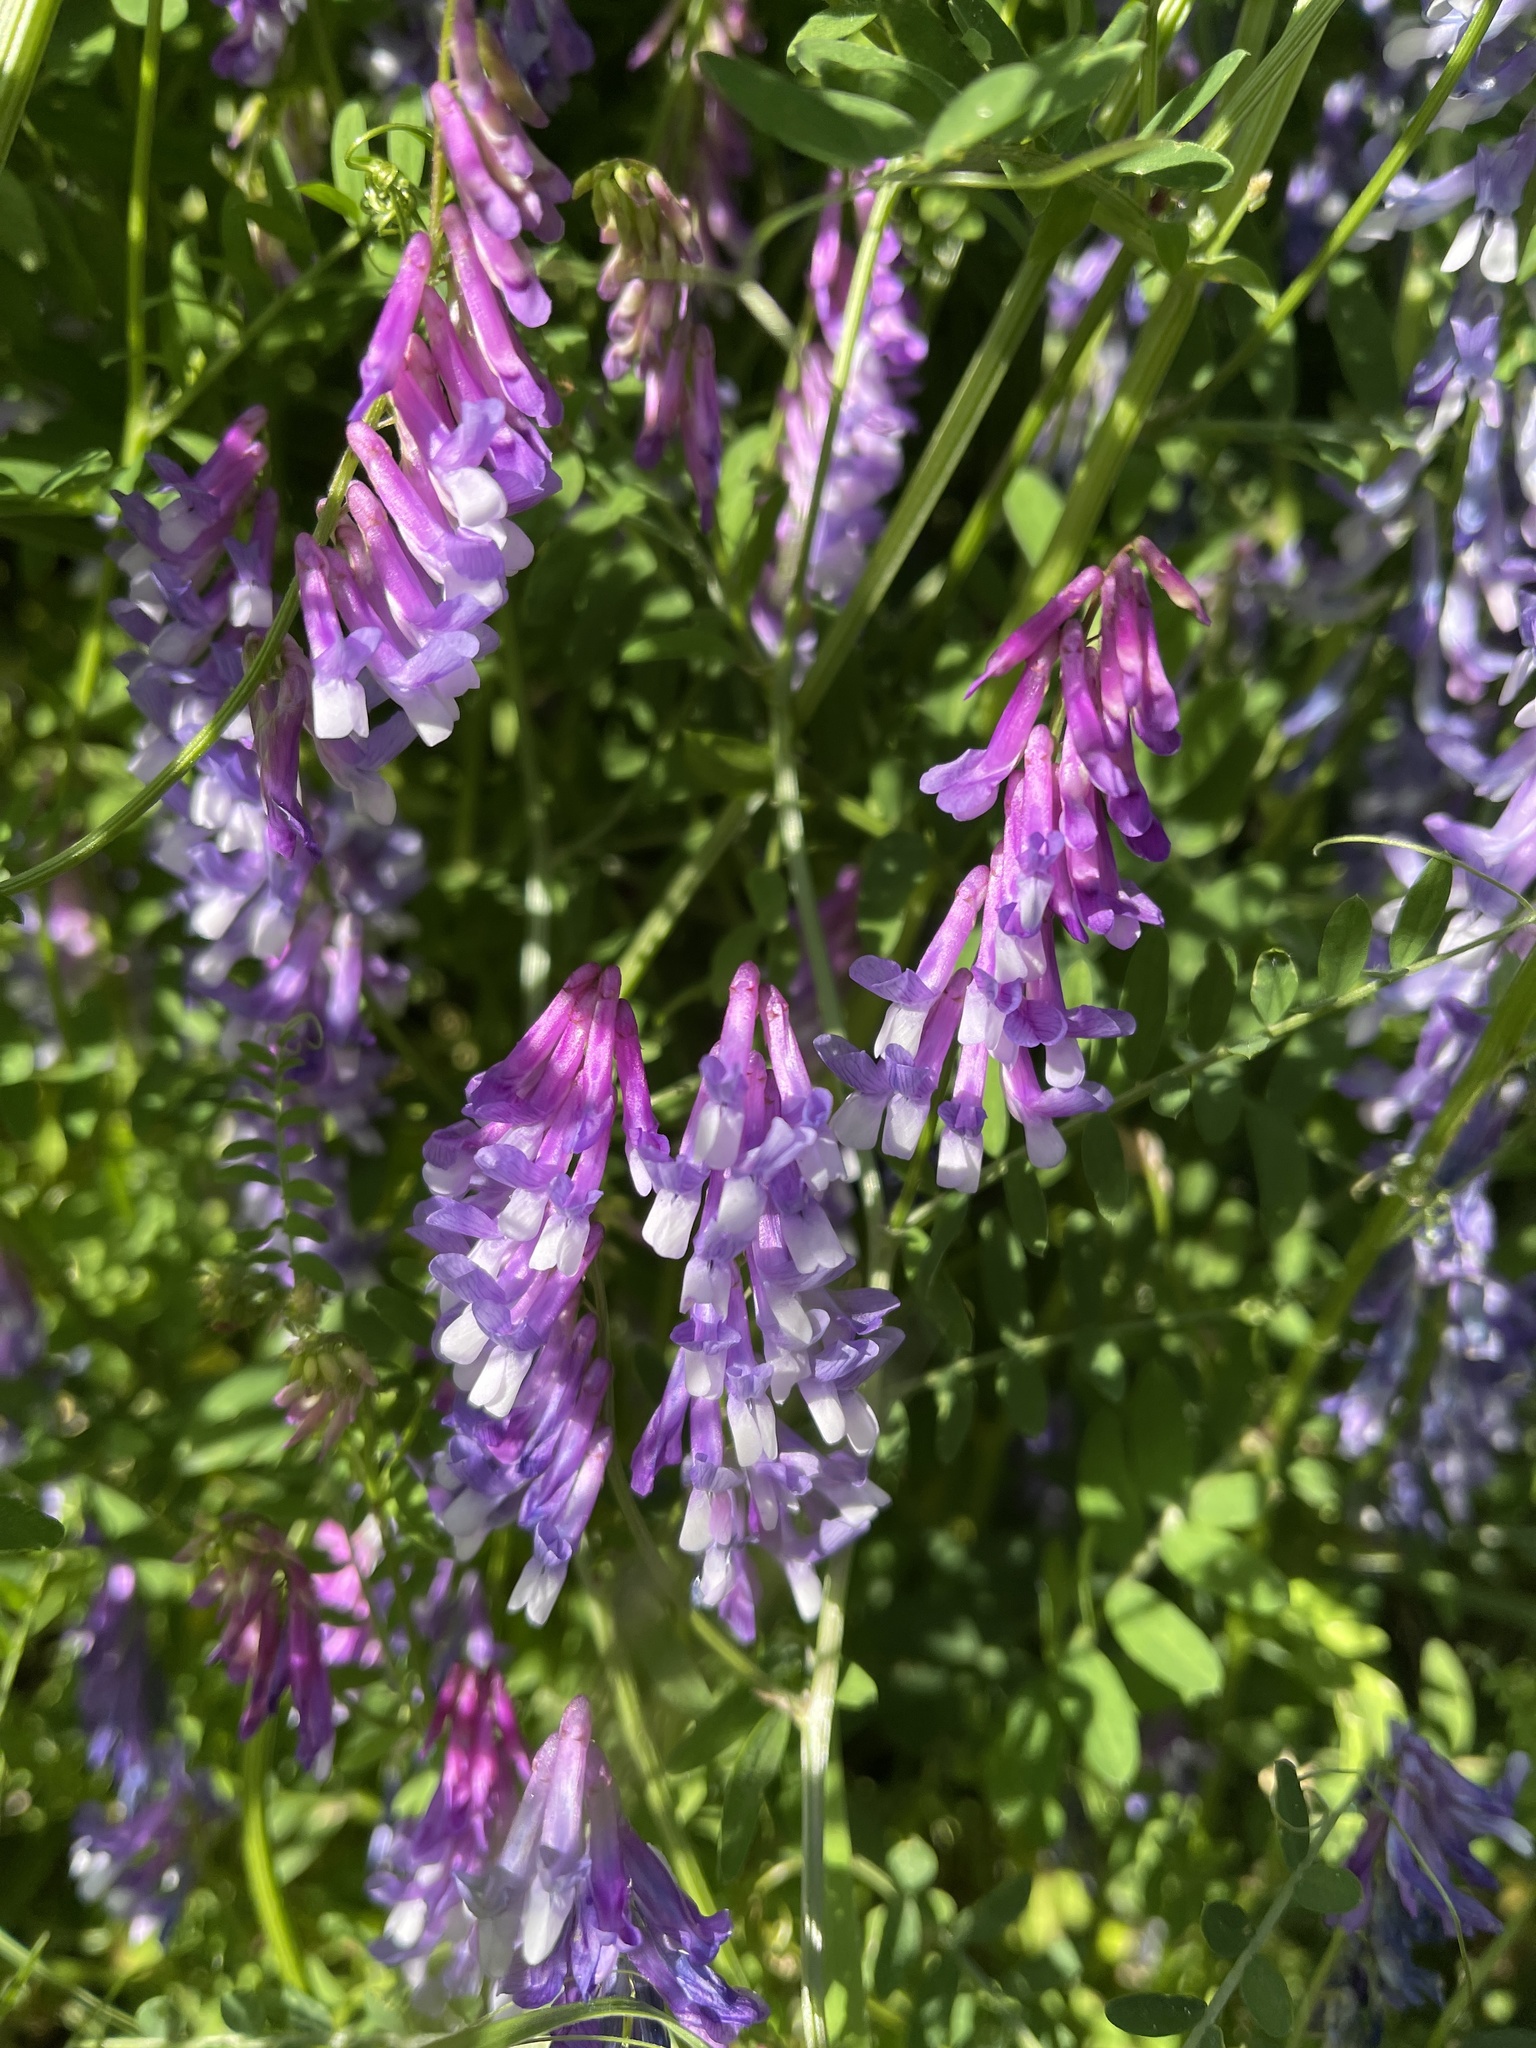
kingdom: Plantae
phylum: Tracheophyta
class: Magnoliopsida
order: Fabales
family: Fabaceae
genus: Vicia
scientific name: Vicia villosa
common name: Fodder vetch
